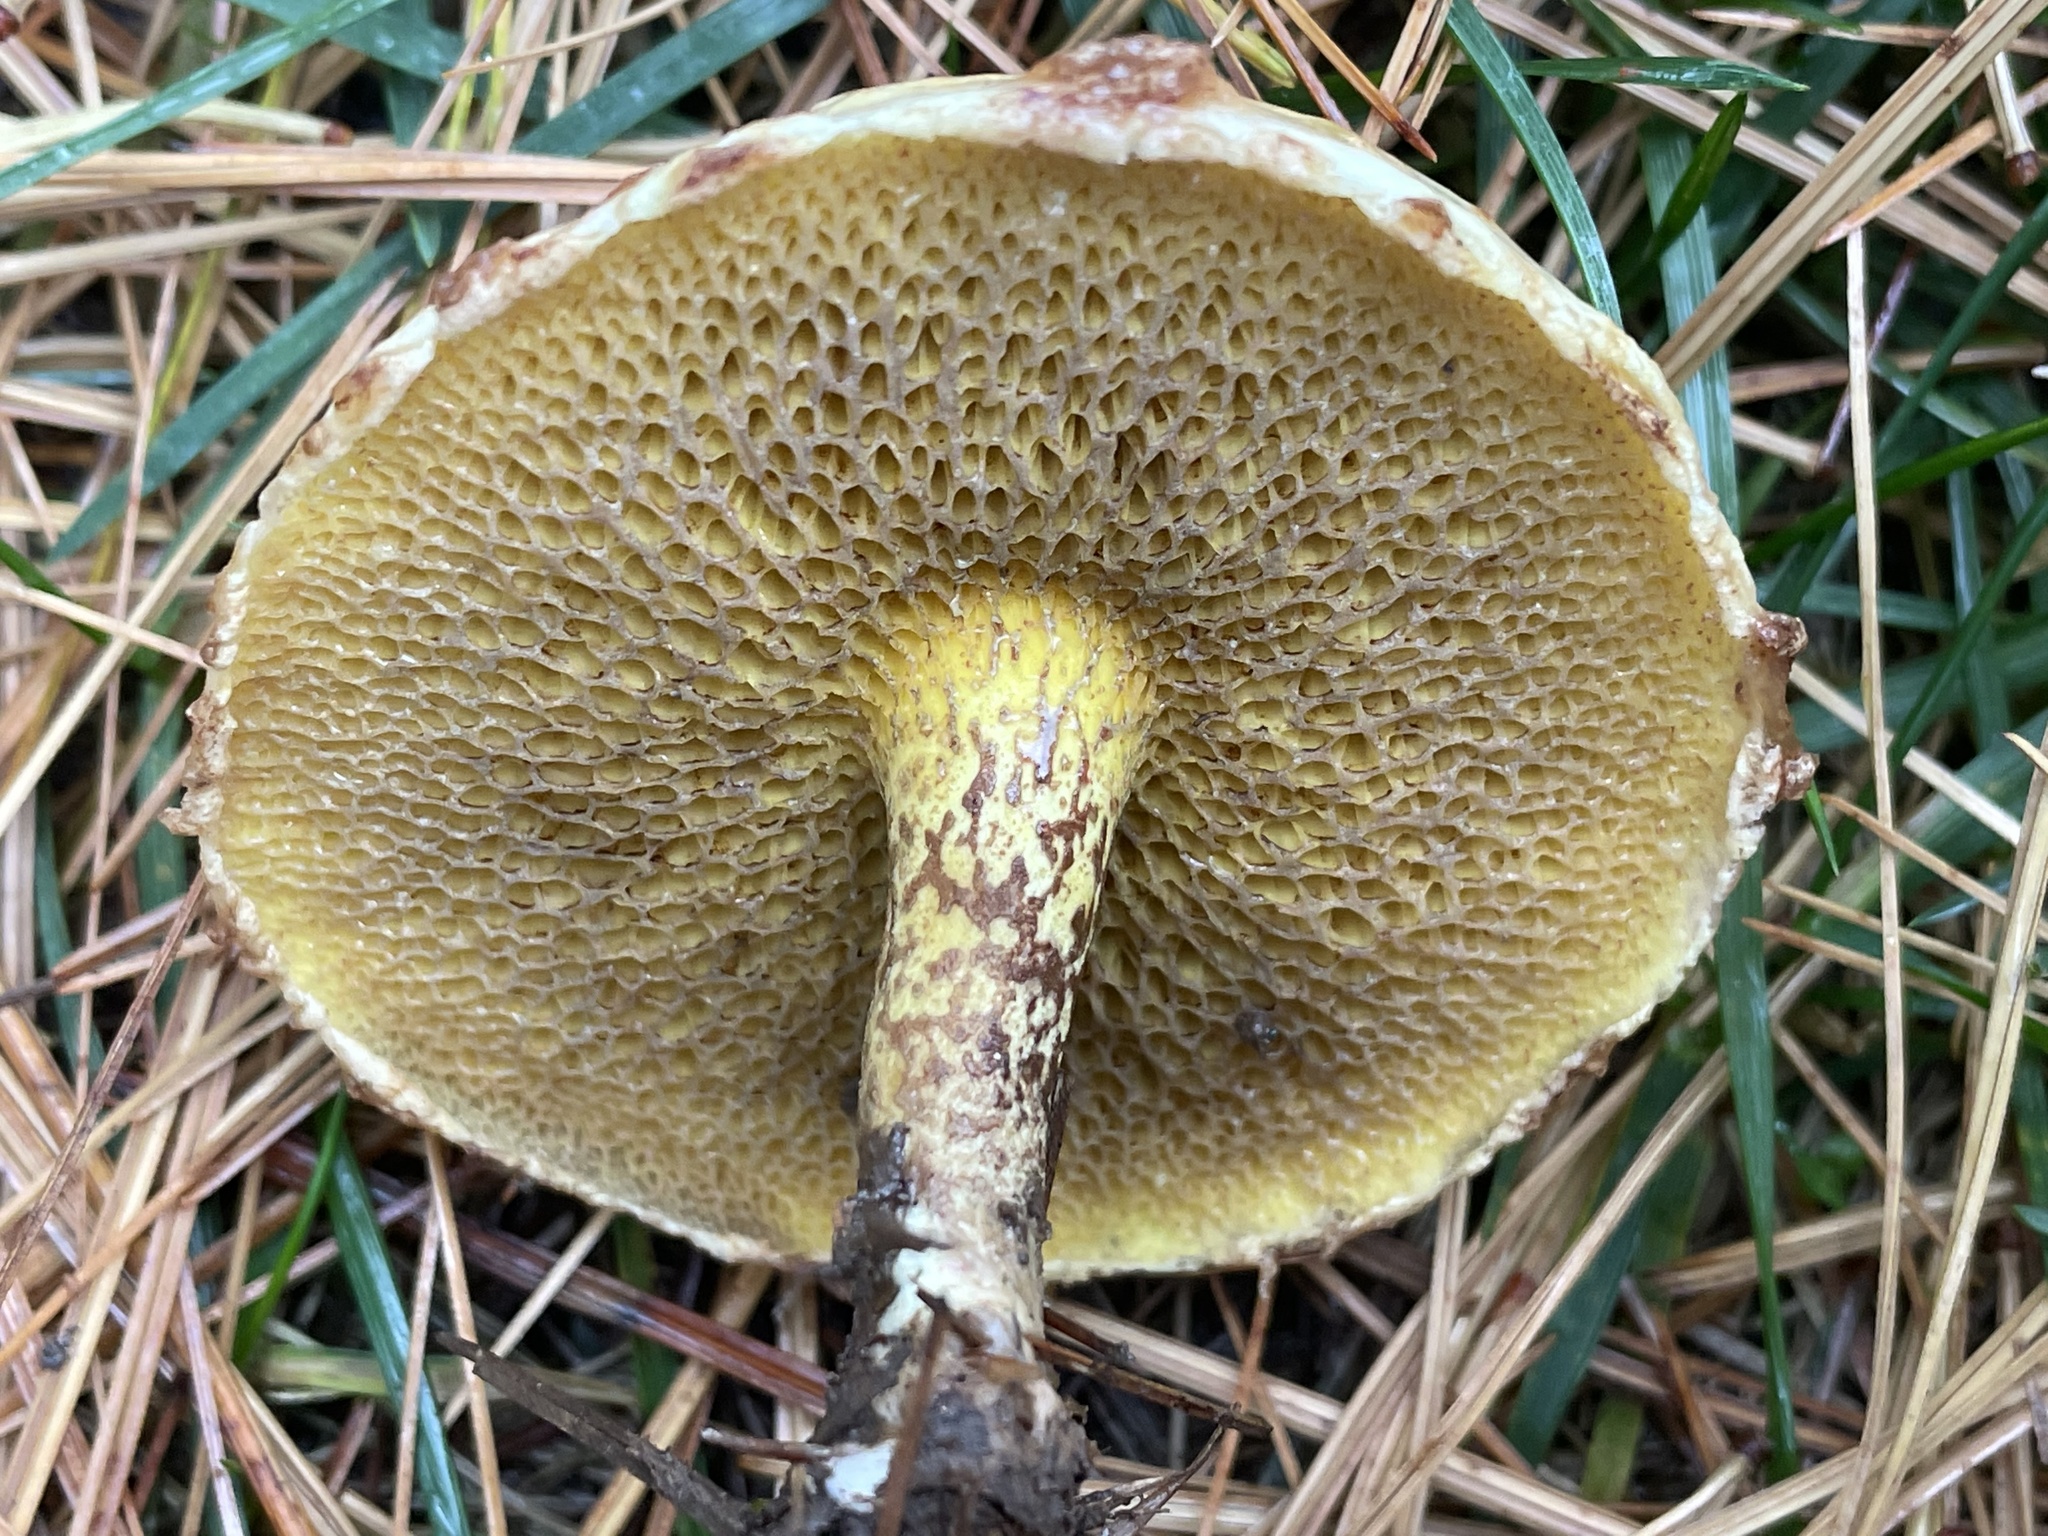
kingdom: Fungi
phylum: Basidiomycota
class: Agaricomycetes
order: Boletales
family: Suillaceae
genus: Suillus
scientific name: Suillus americanus
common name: Chicken fat mushroom
